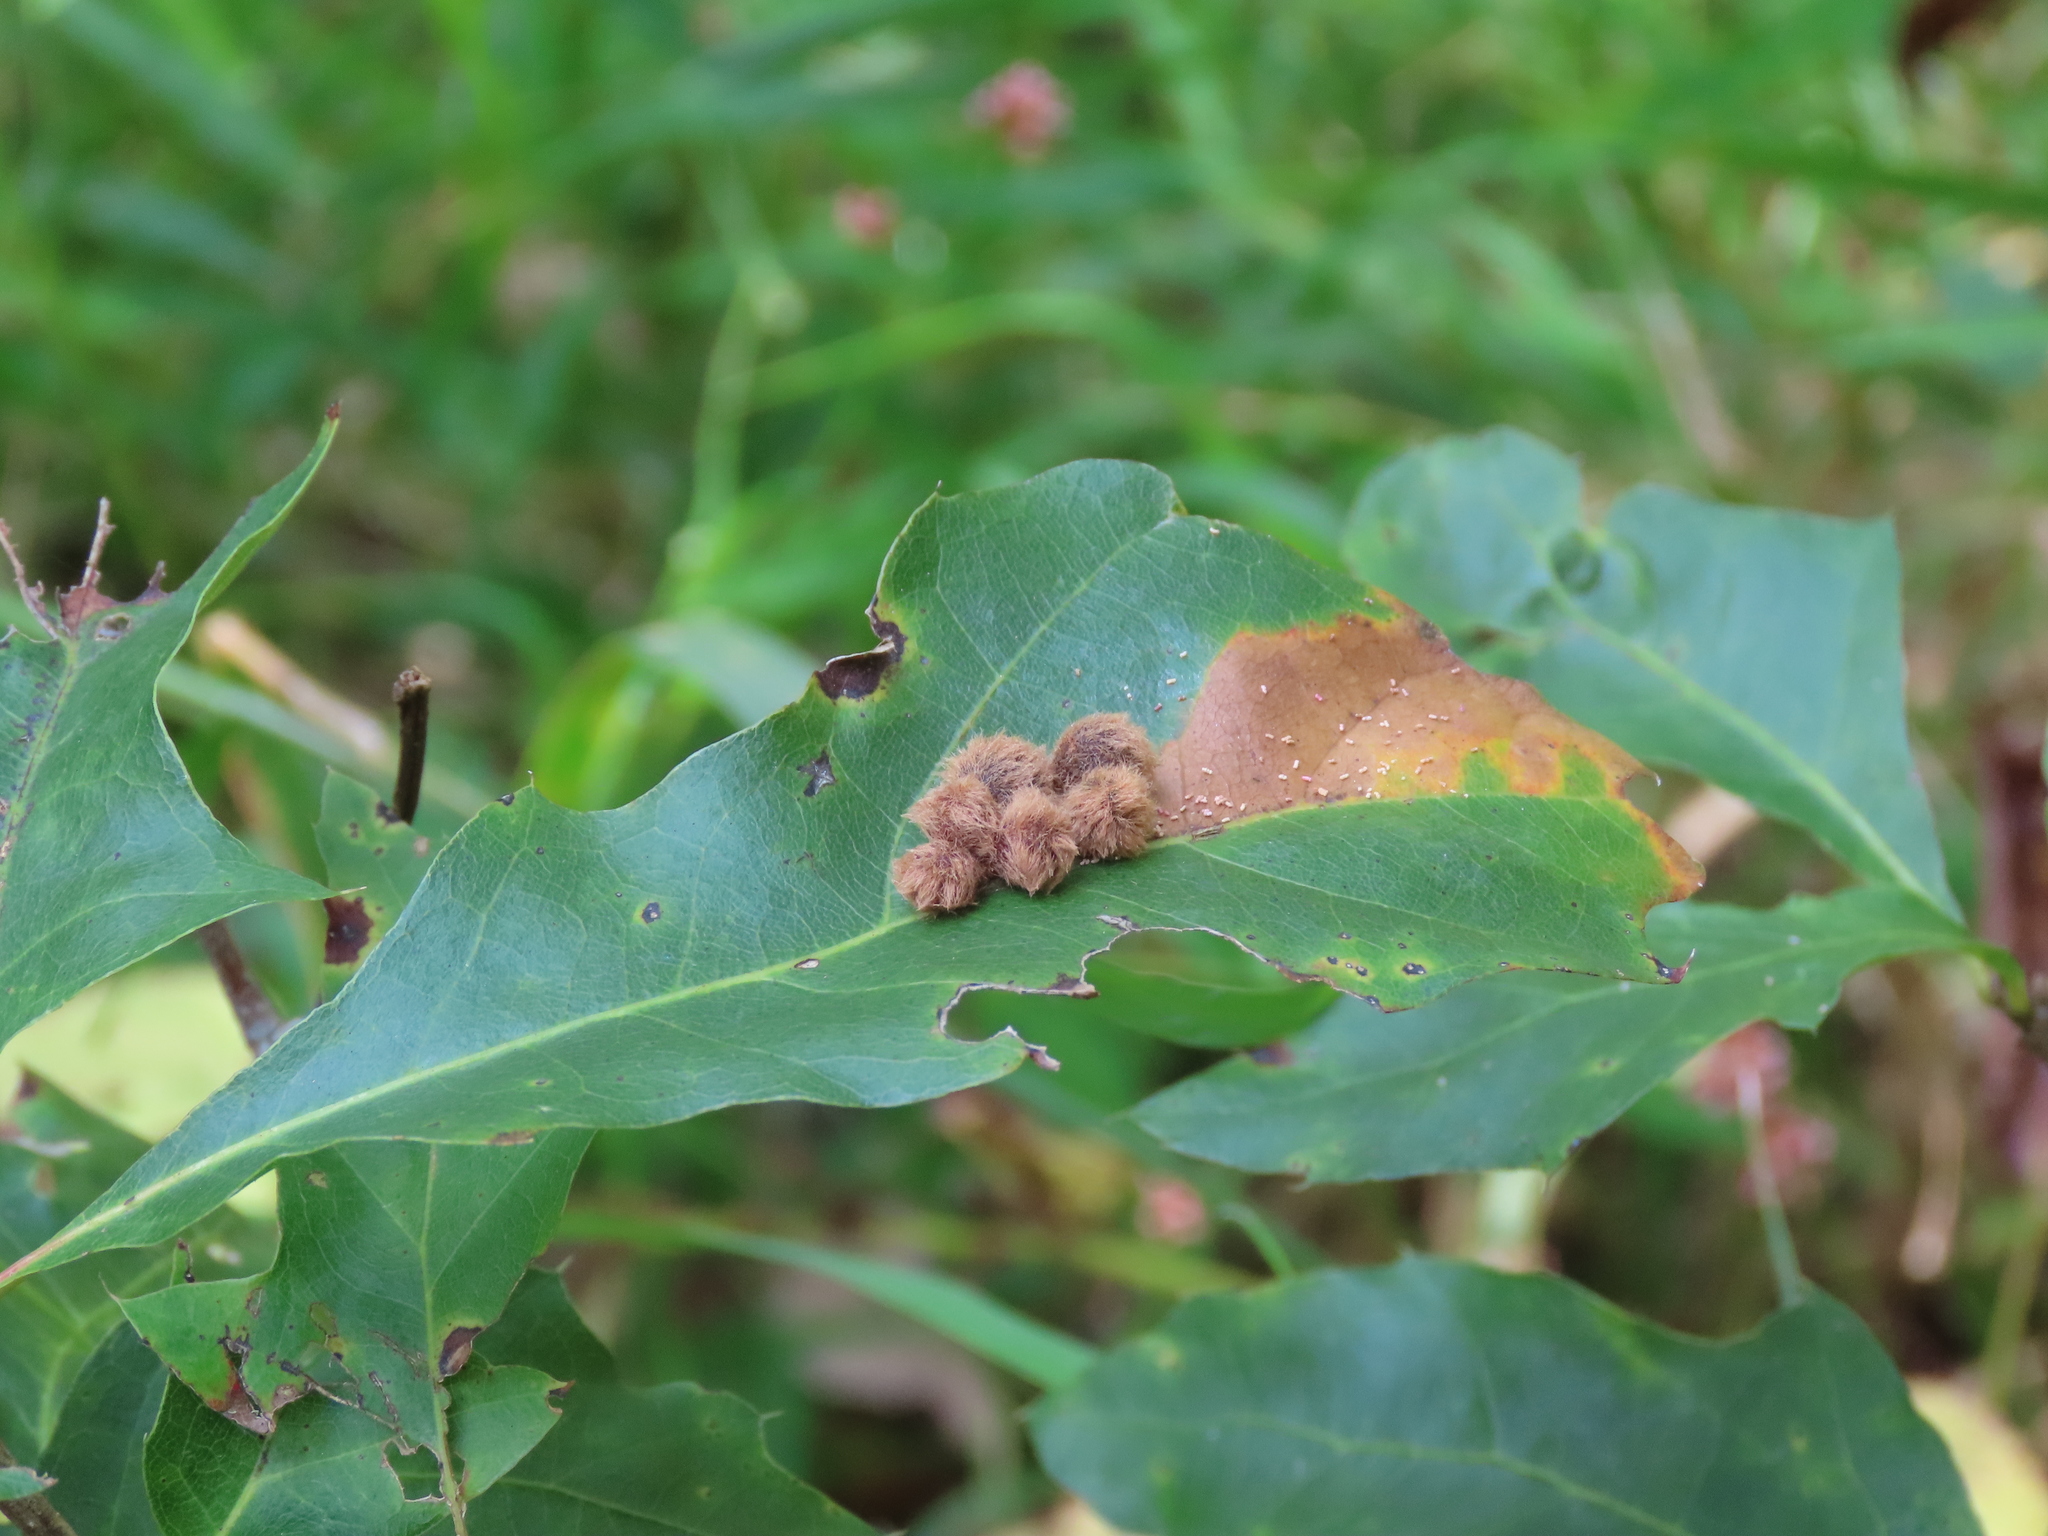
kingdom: Animalia
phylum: Arthropoda
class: Insecta
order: Hymenoptera
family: Cynipidae
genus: Callirhytis
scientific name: Callirhytis
